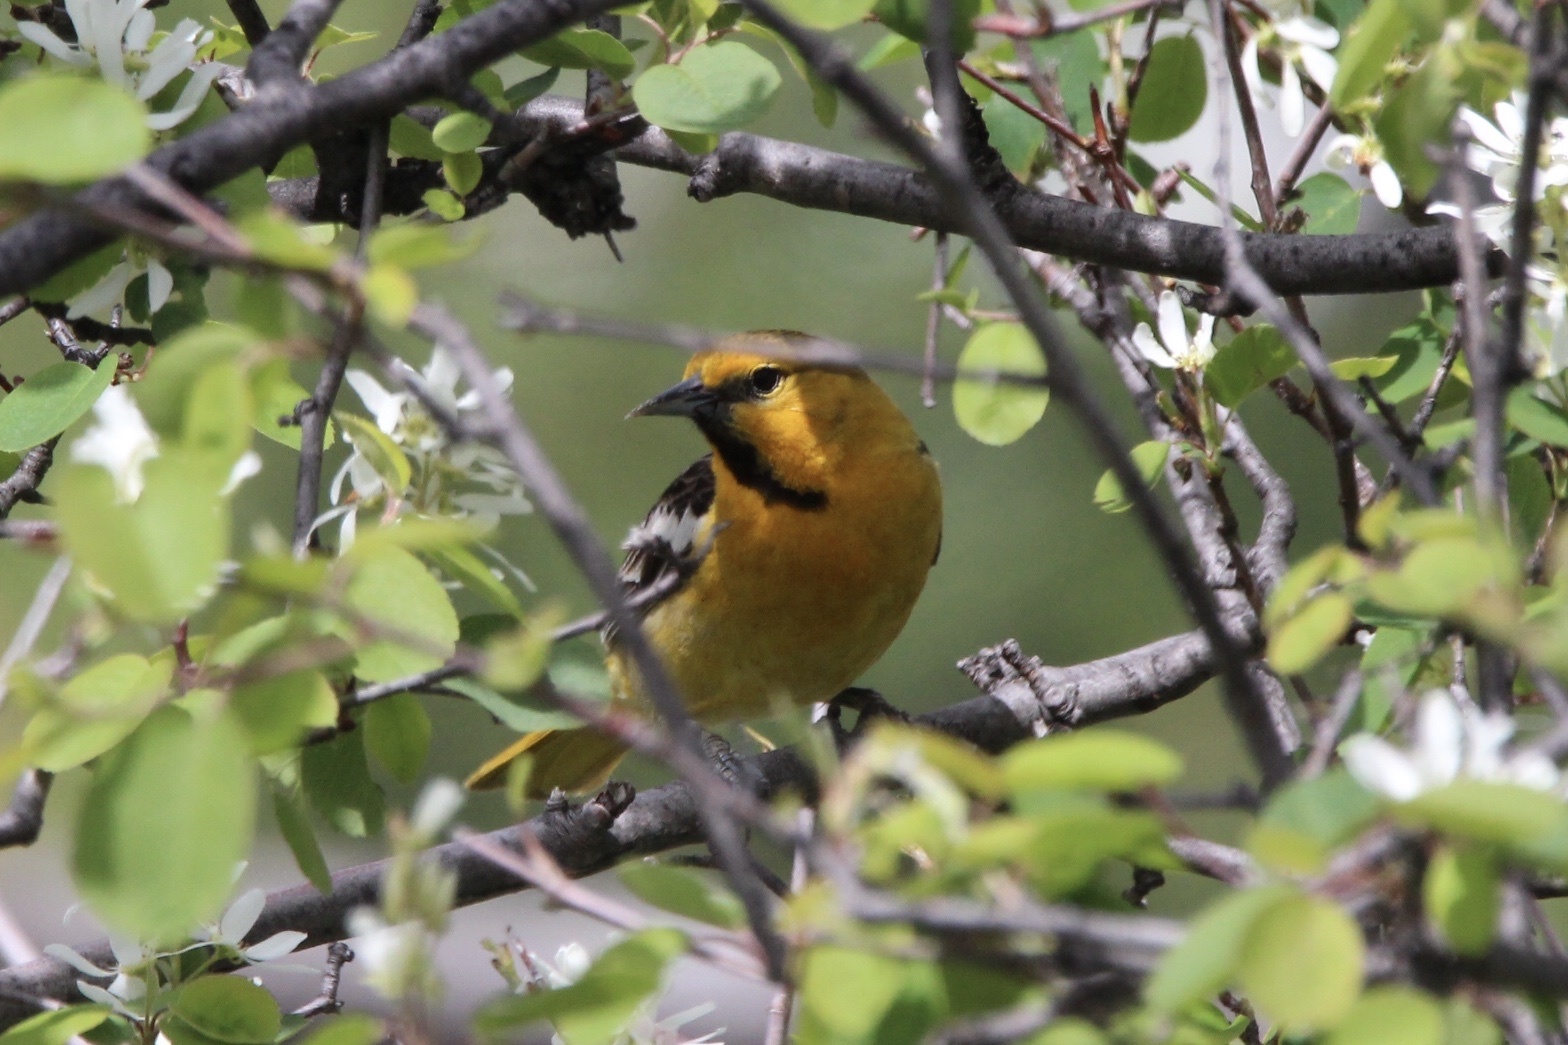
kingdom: Animalia
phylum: Chordata
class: Aves
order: Passeriformes
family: Icteridae
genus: Icterus
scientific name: Icterus bullockii
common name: Bullock's oriole
